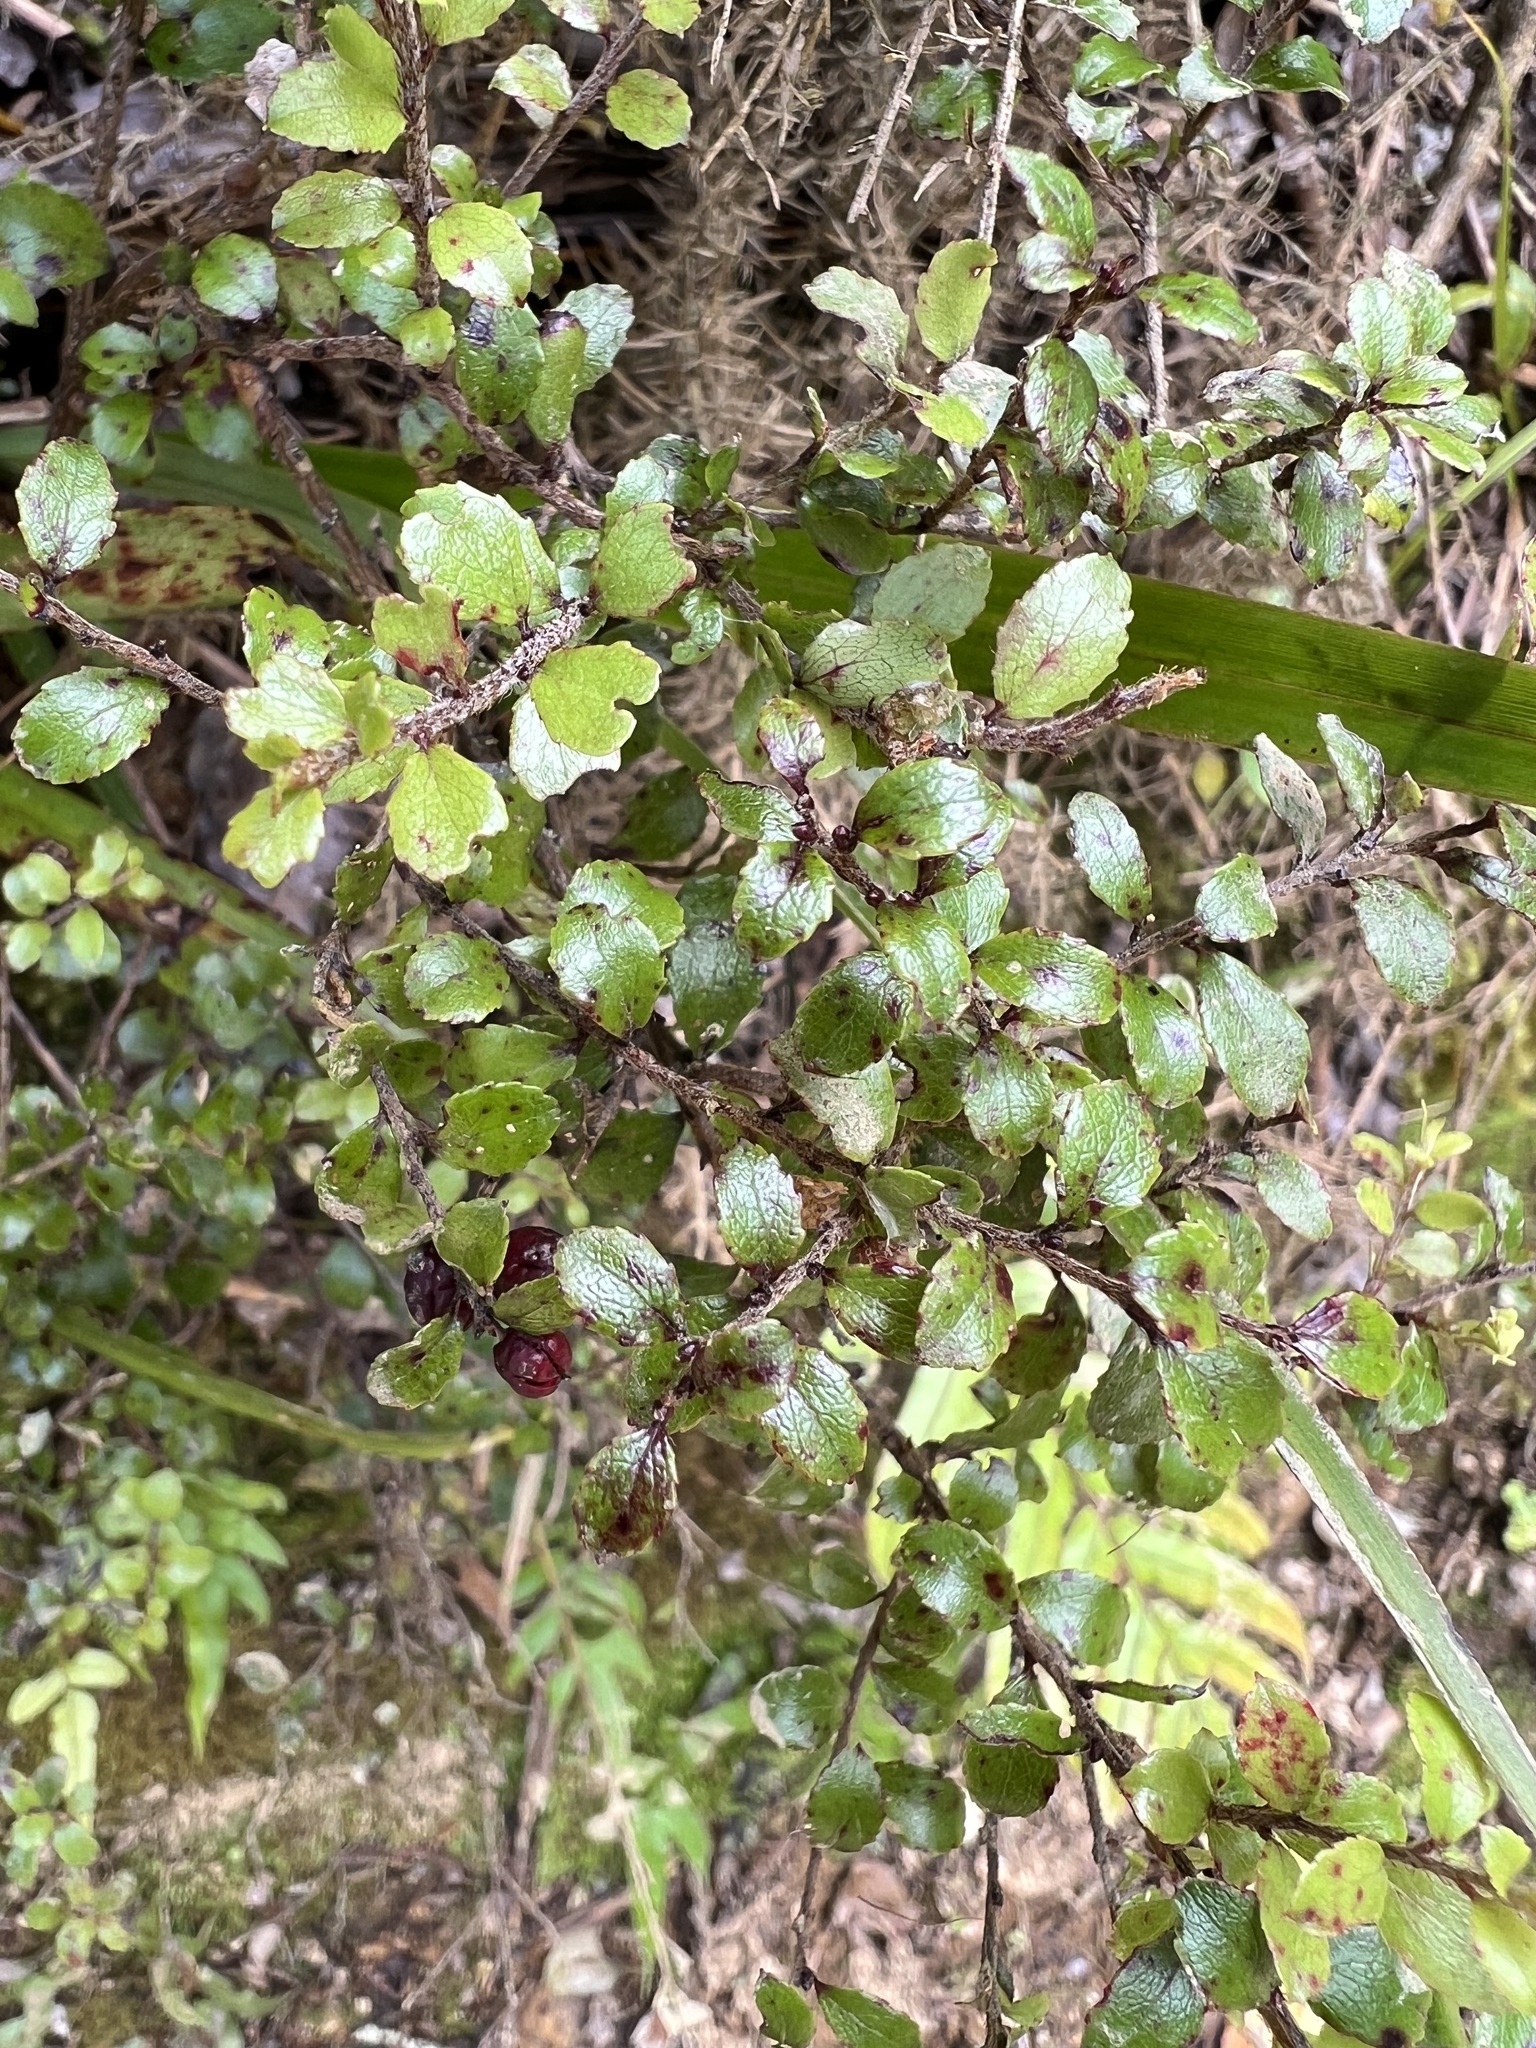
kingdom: Plantae
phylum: Tracheophyta
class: Magnoliopsida
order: Ericales
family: Ericaceae
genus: Gaultheria
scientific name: Gaultheria antipoda
